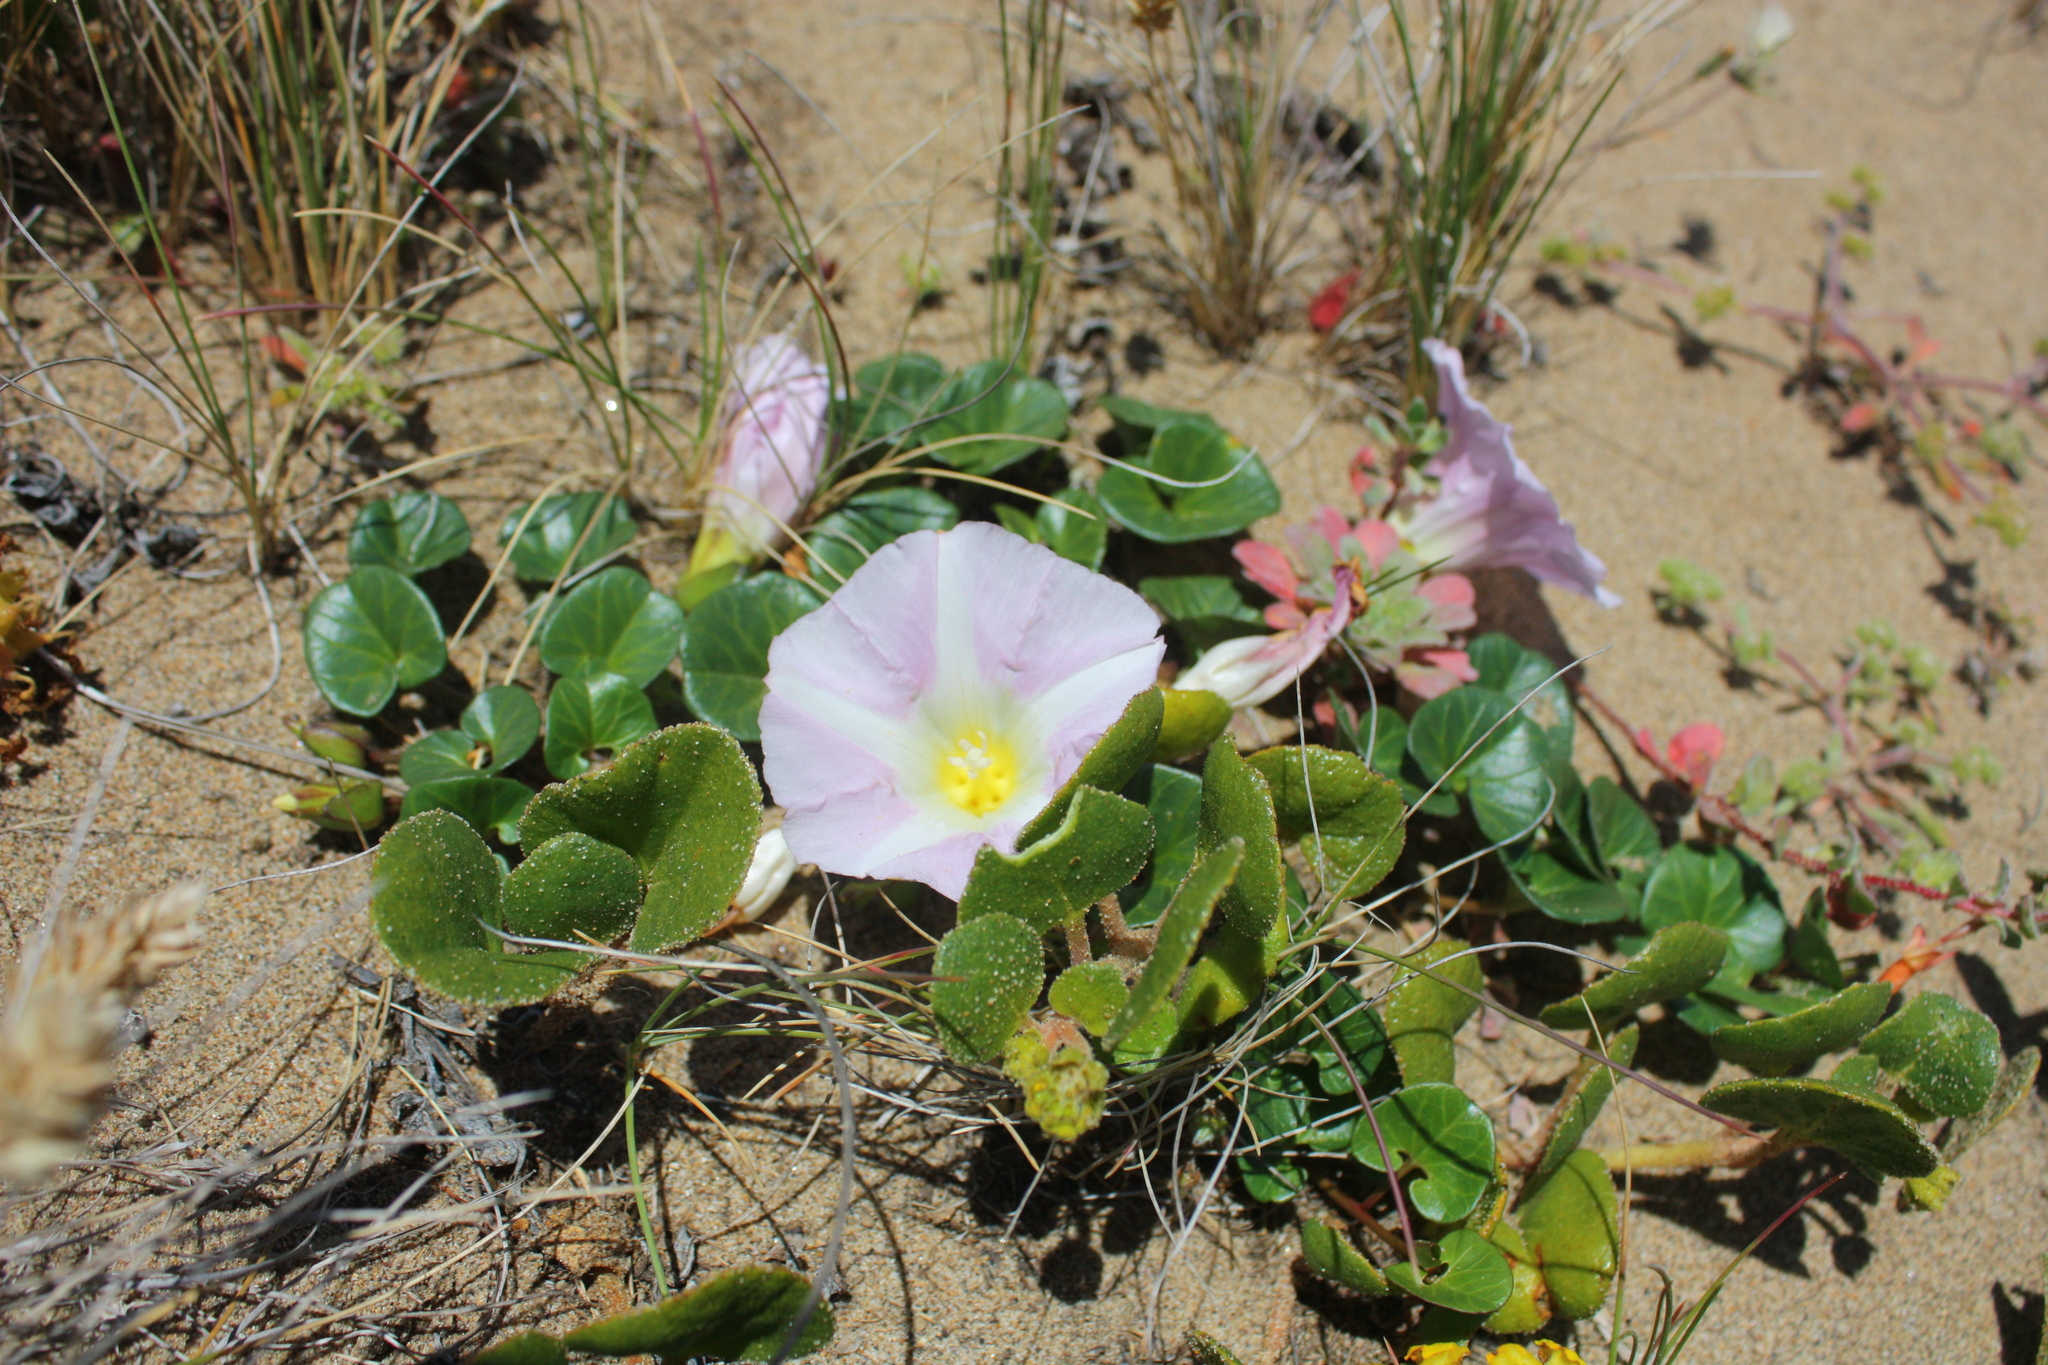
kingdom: Plantae
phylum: Tracheophyta
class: Magnoliopsida
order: Solanales
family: Convolvulaceae
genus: Calystegia
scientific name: Calystegia soldanella
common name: Sea bindweed
